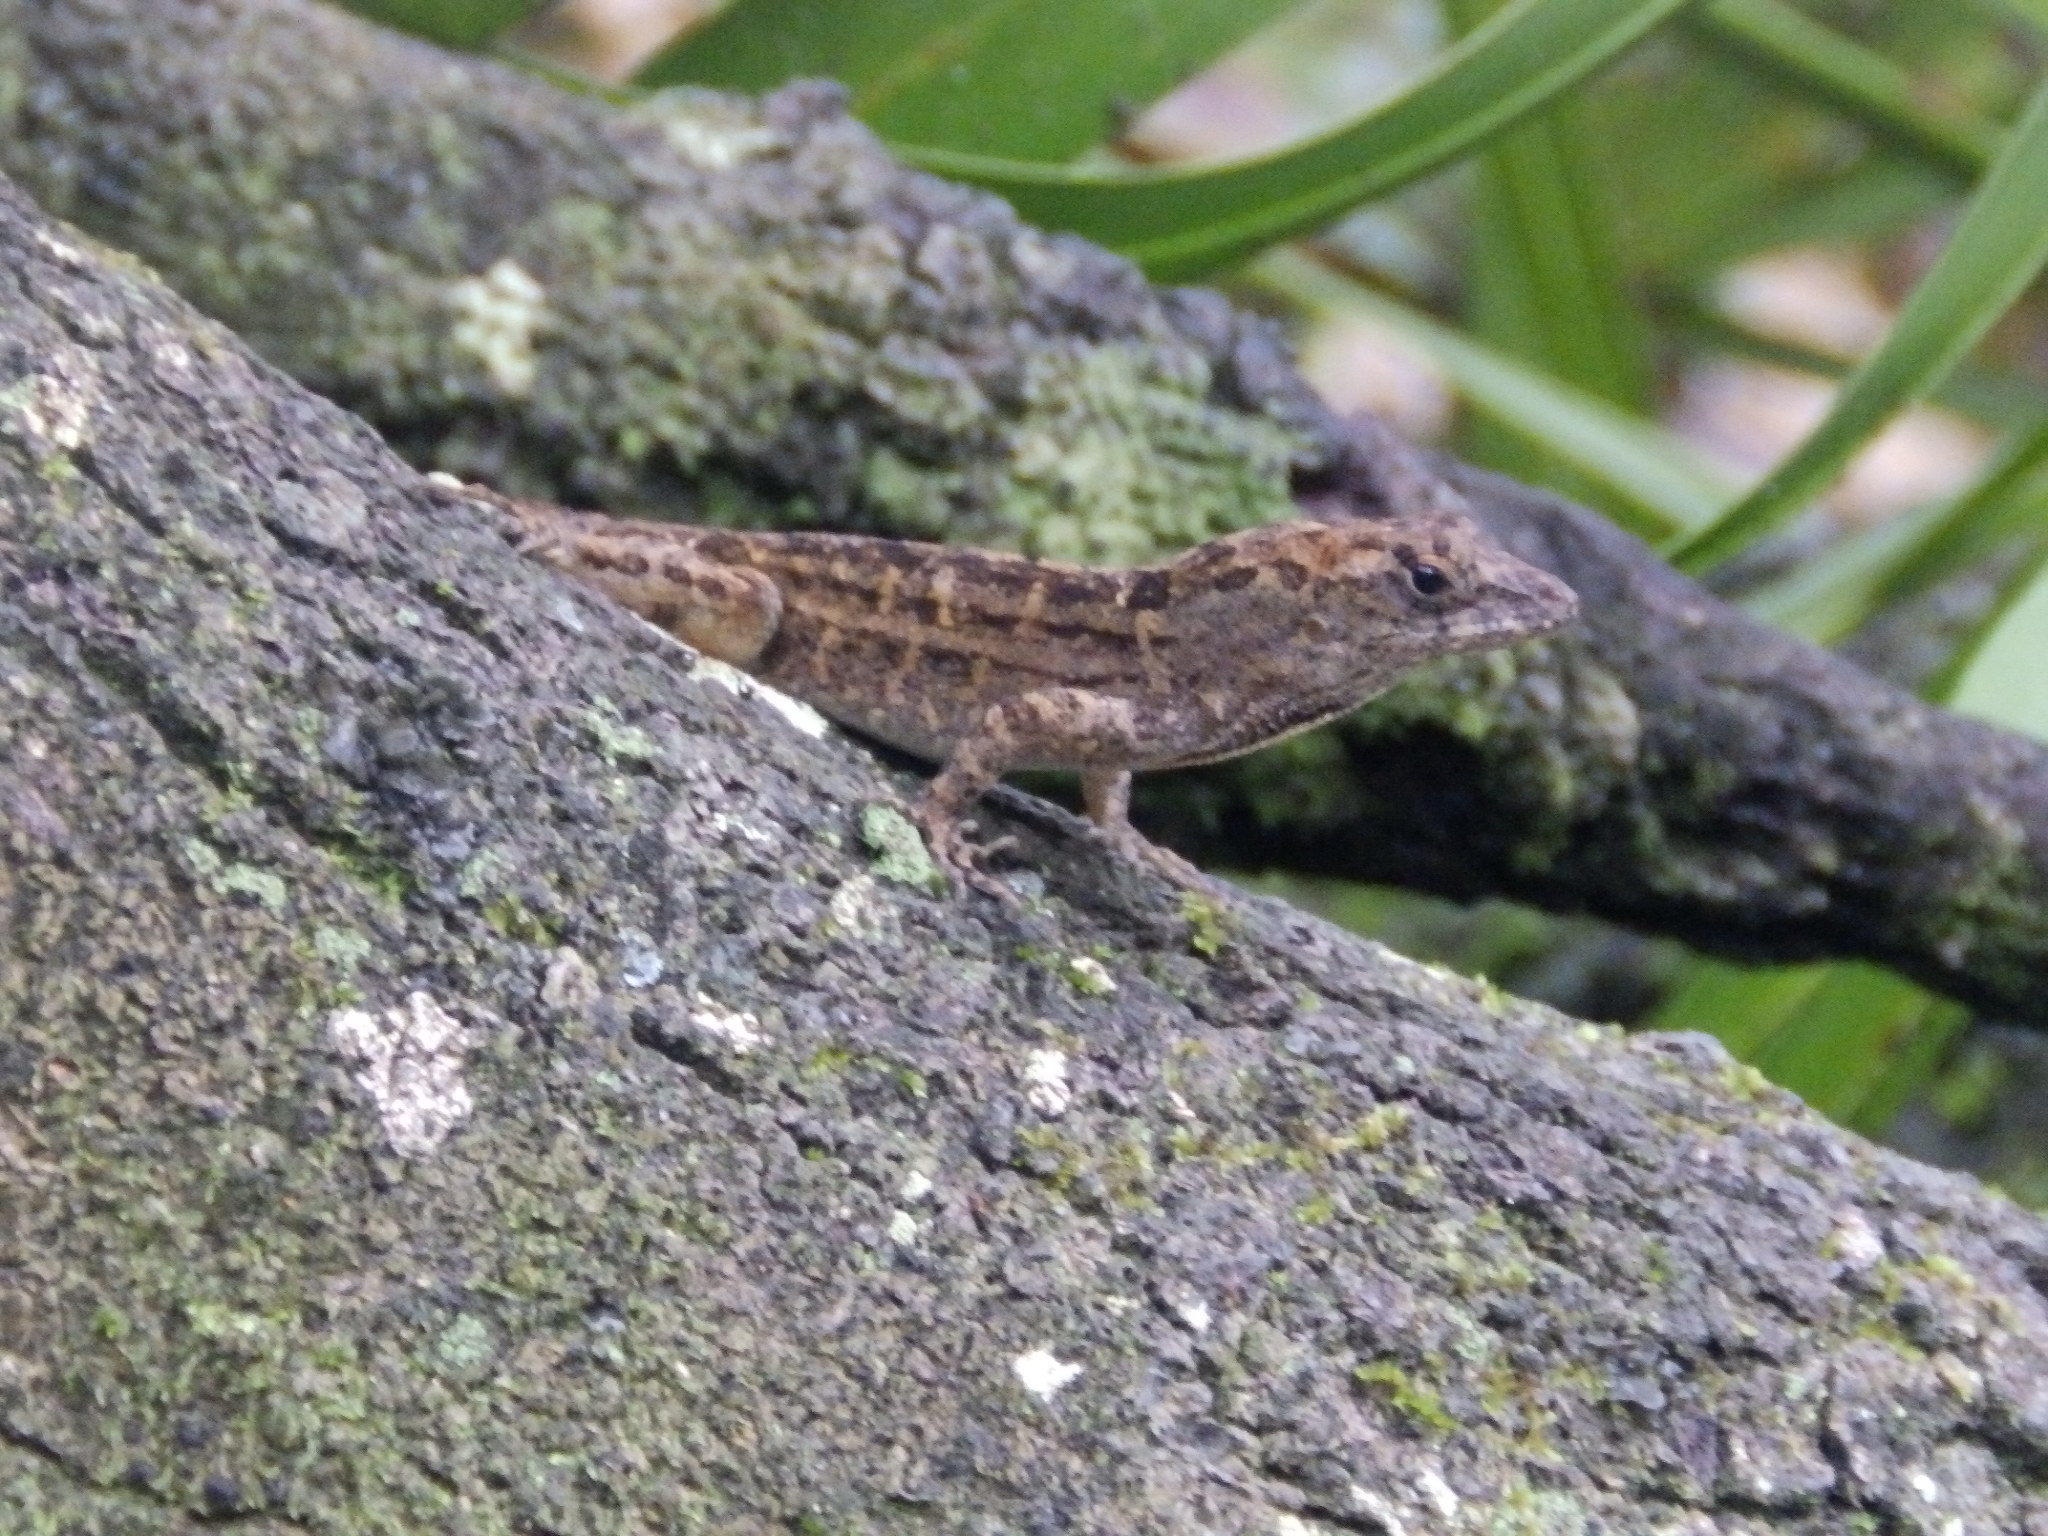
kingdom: Animalia
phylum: Chordata
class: Squamata
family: Dactyloidae
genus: Anolis
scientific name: Anolis sagrei
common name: Brown anole
